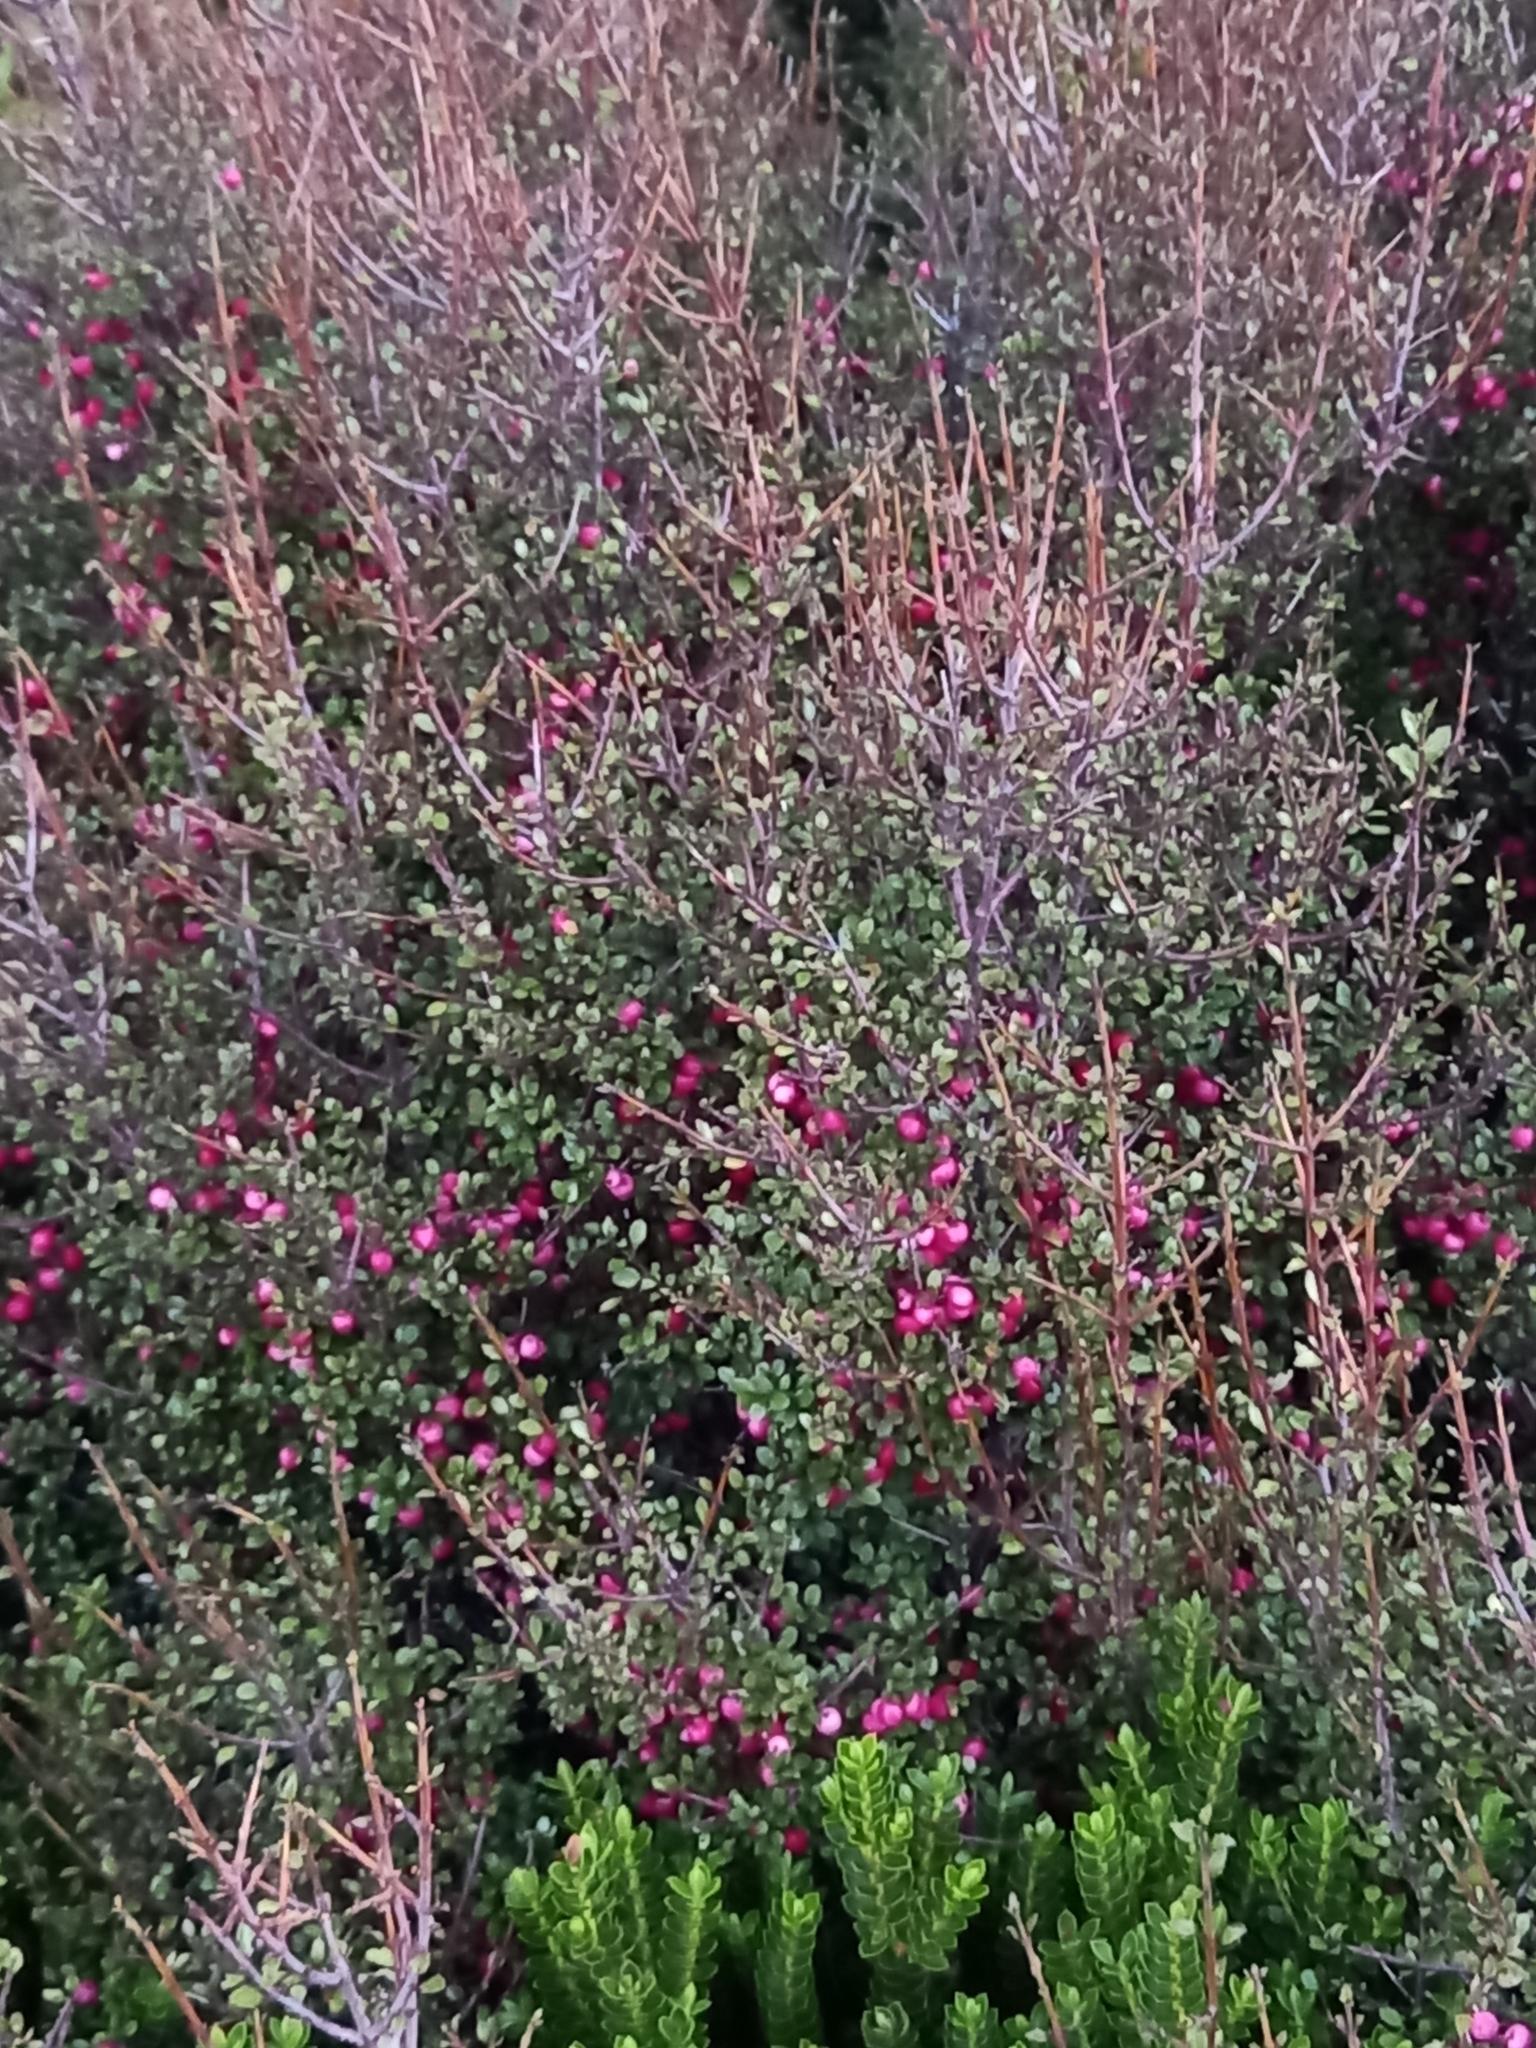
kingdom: Plantae
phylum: Tracheophyta
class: Magnoliopsida
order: Oxalidales
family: Elaeocarpaceae
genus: Aristotelia
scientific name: Aristotelia fruticosa
